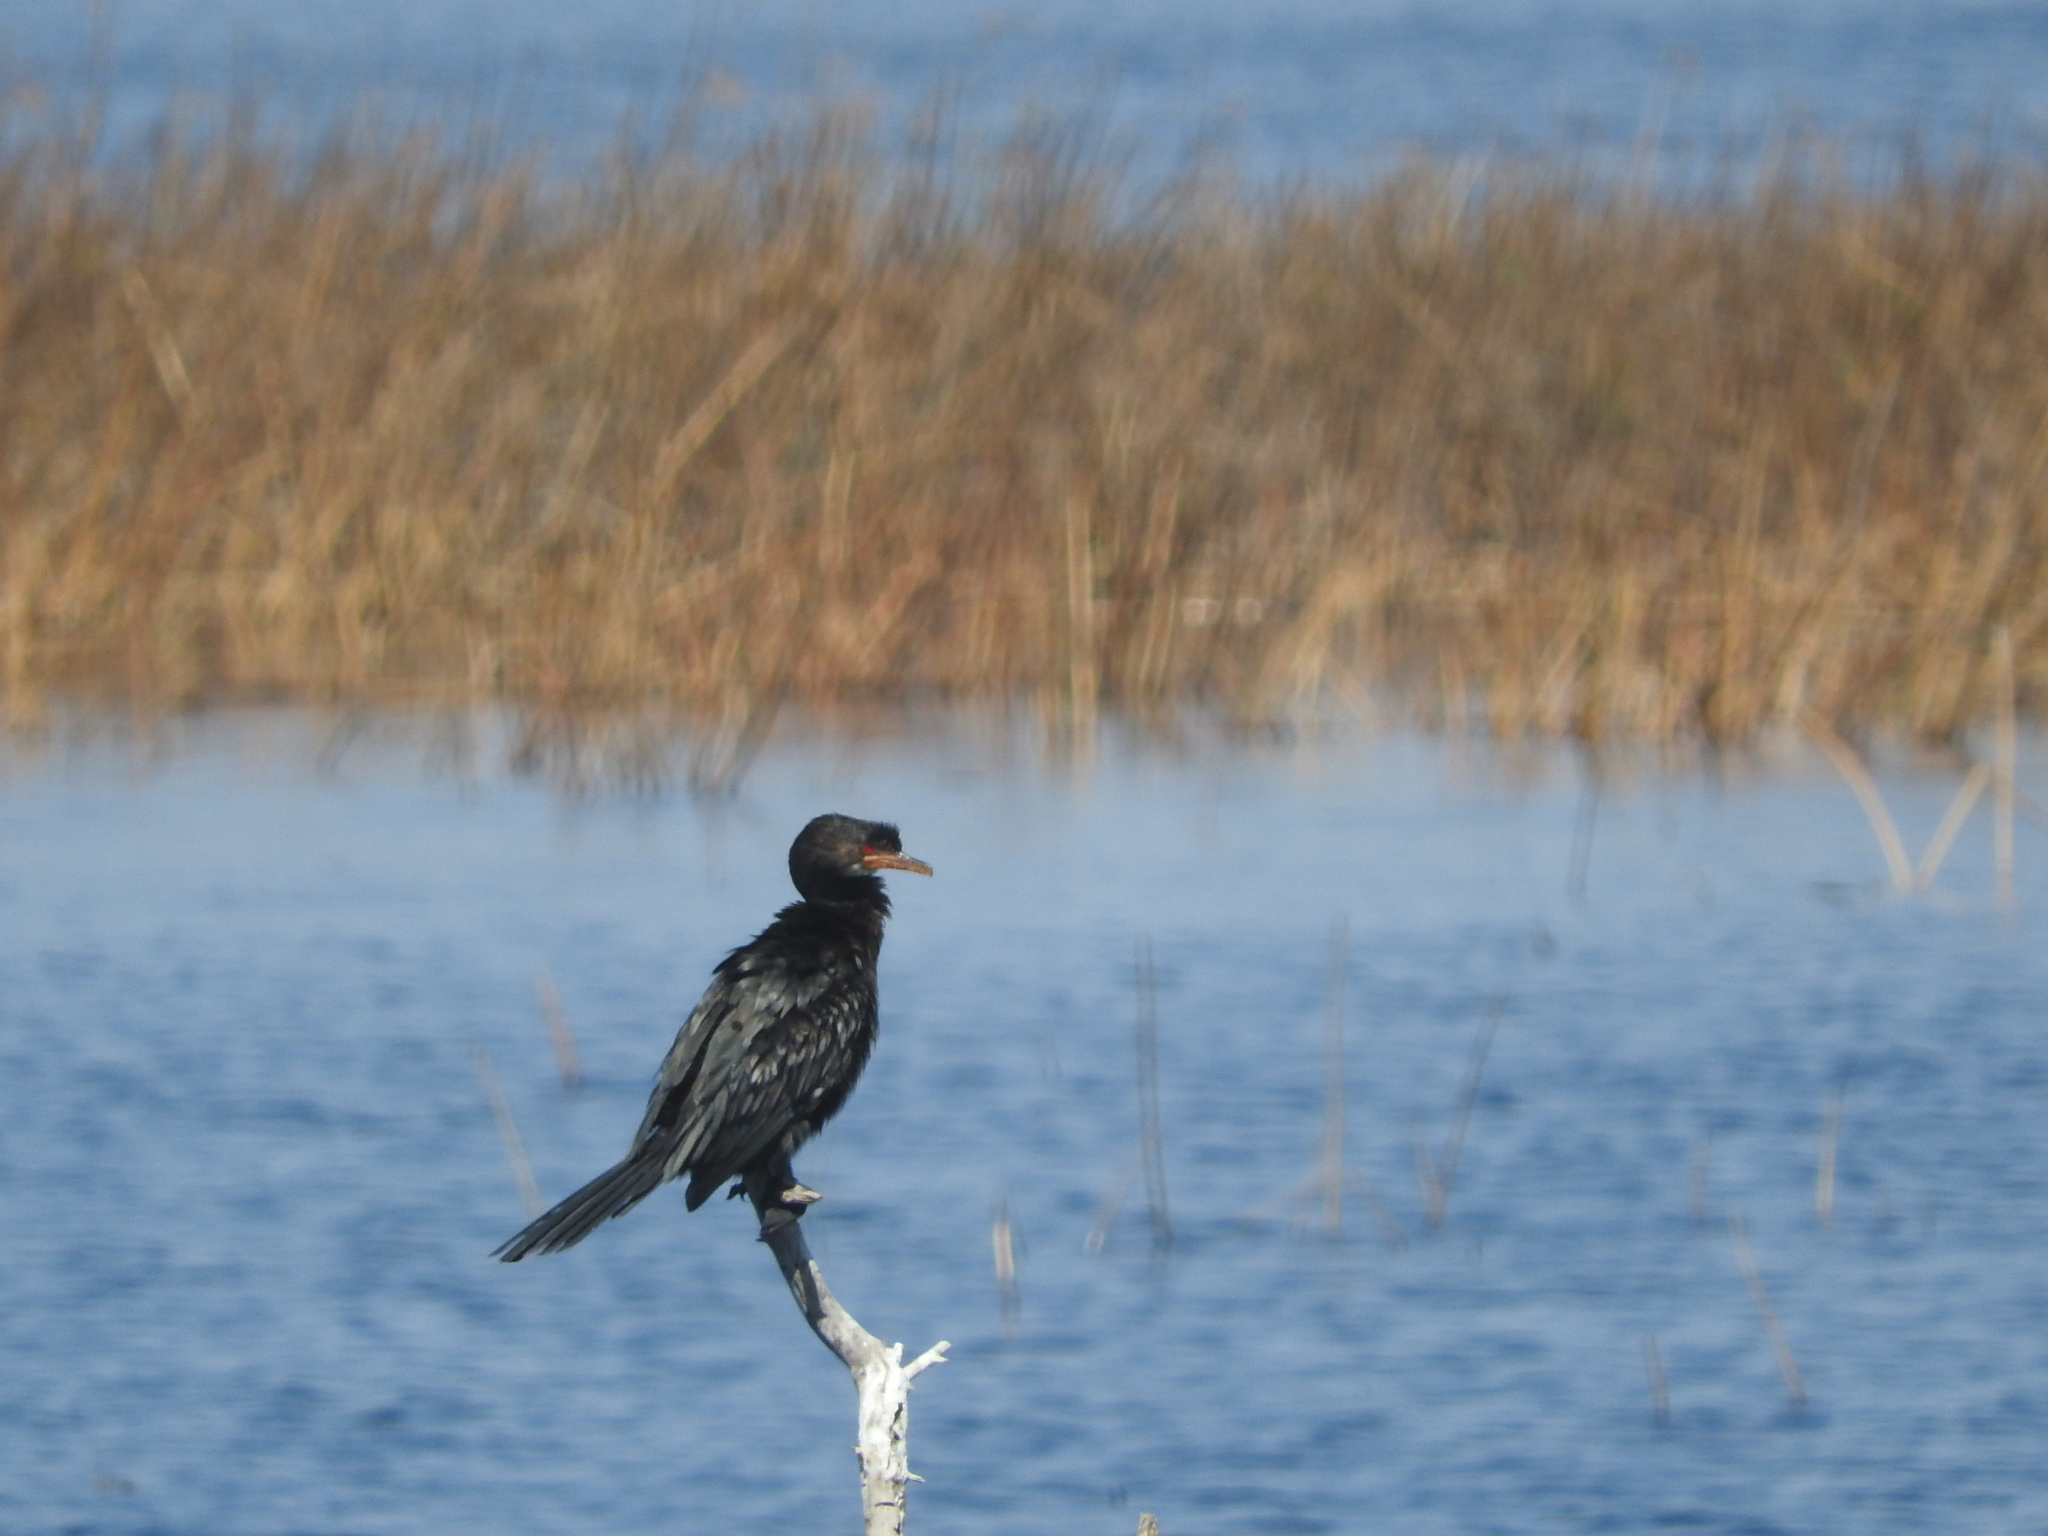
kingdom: Animalia
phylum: Chordata
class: Aves
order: Suliformes
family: Phalacrocoracidae
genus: Microcarbo
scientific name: Microcarbo africanus
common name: Long-tailed cormorant
